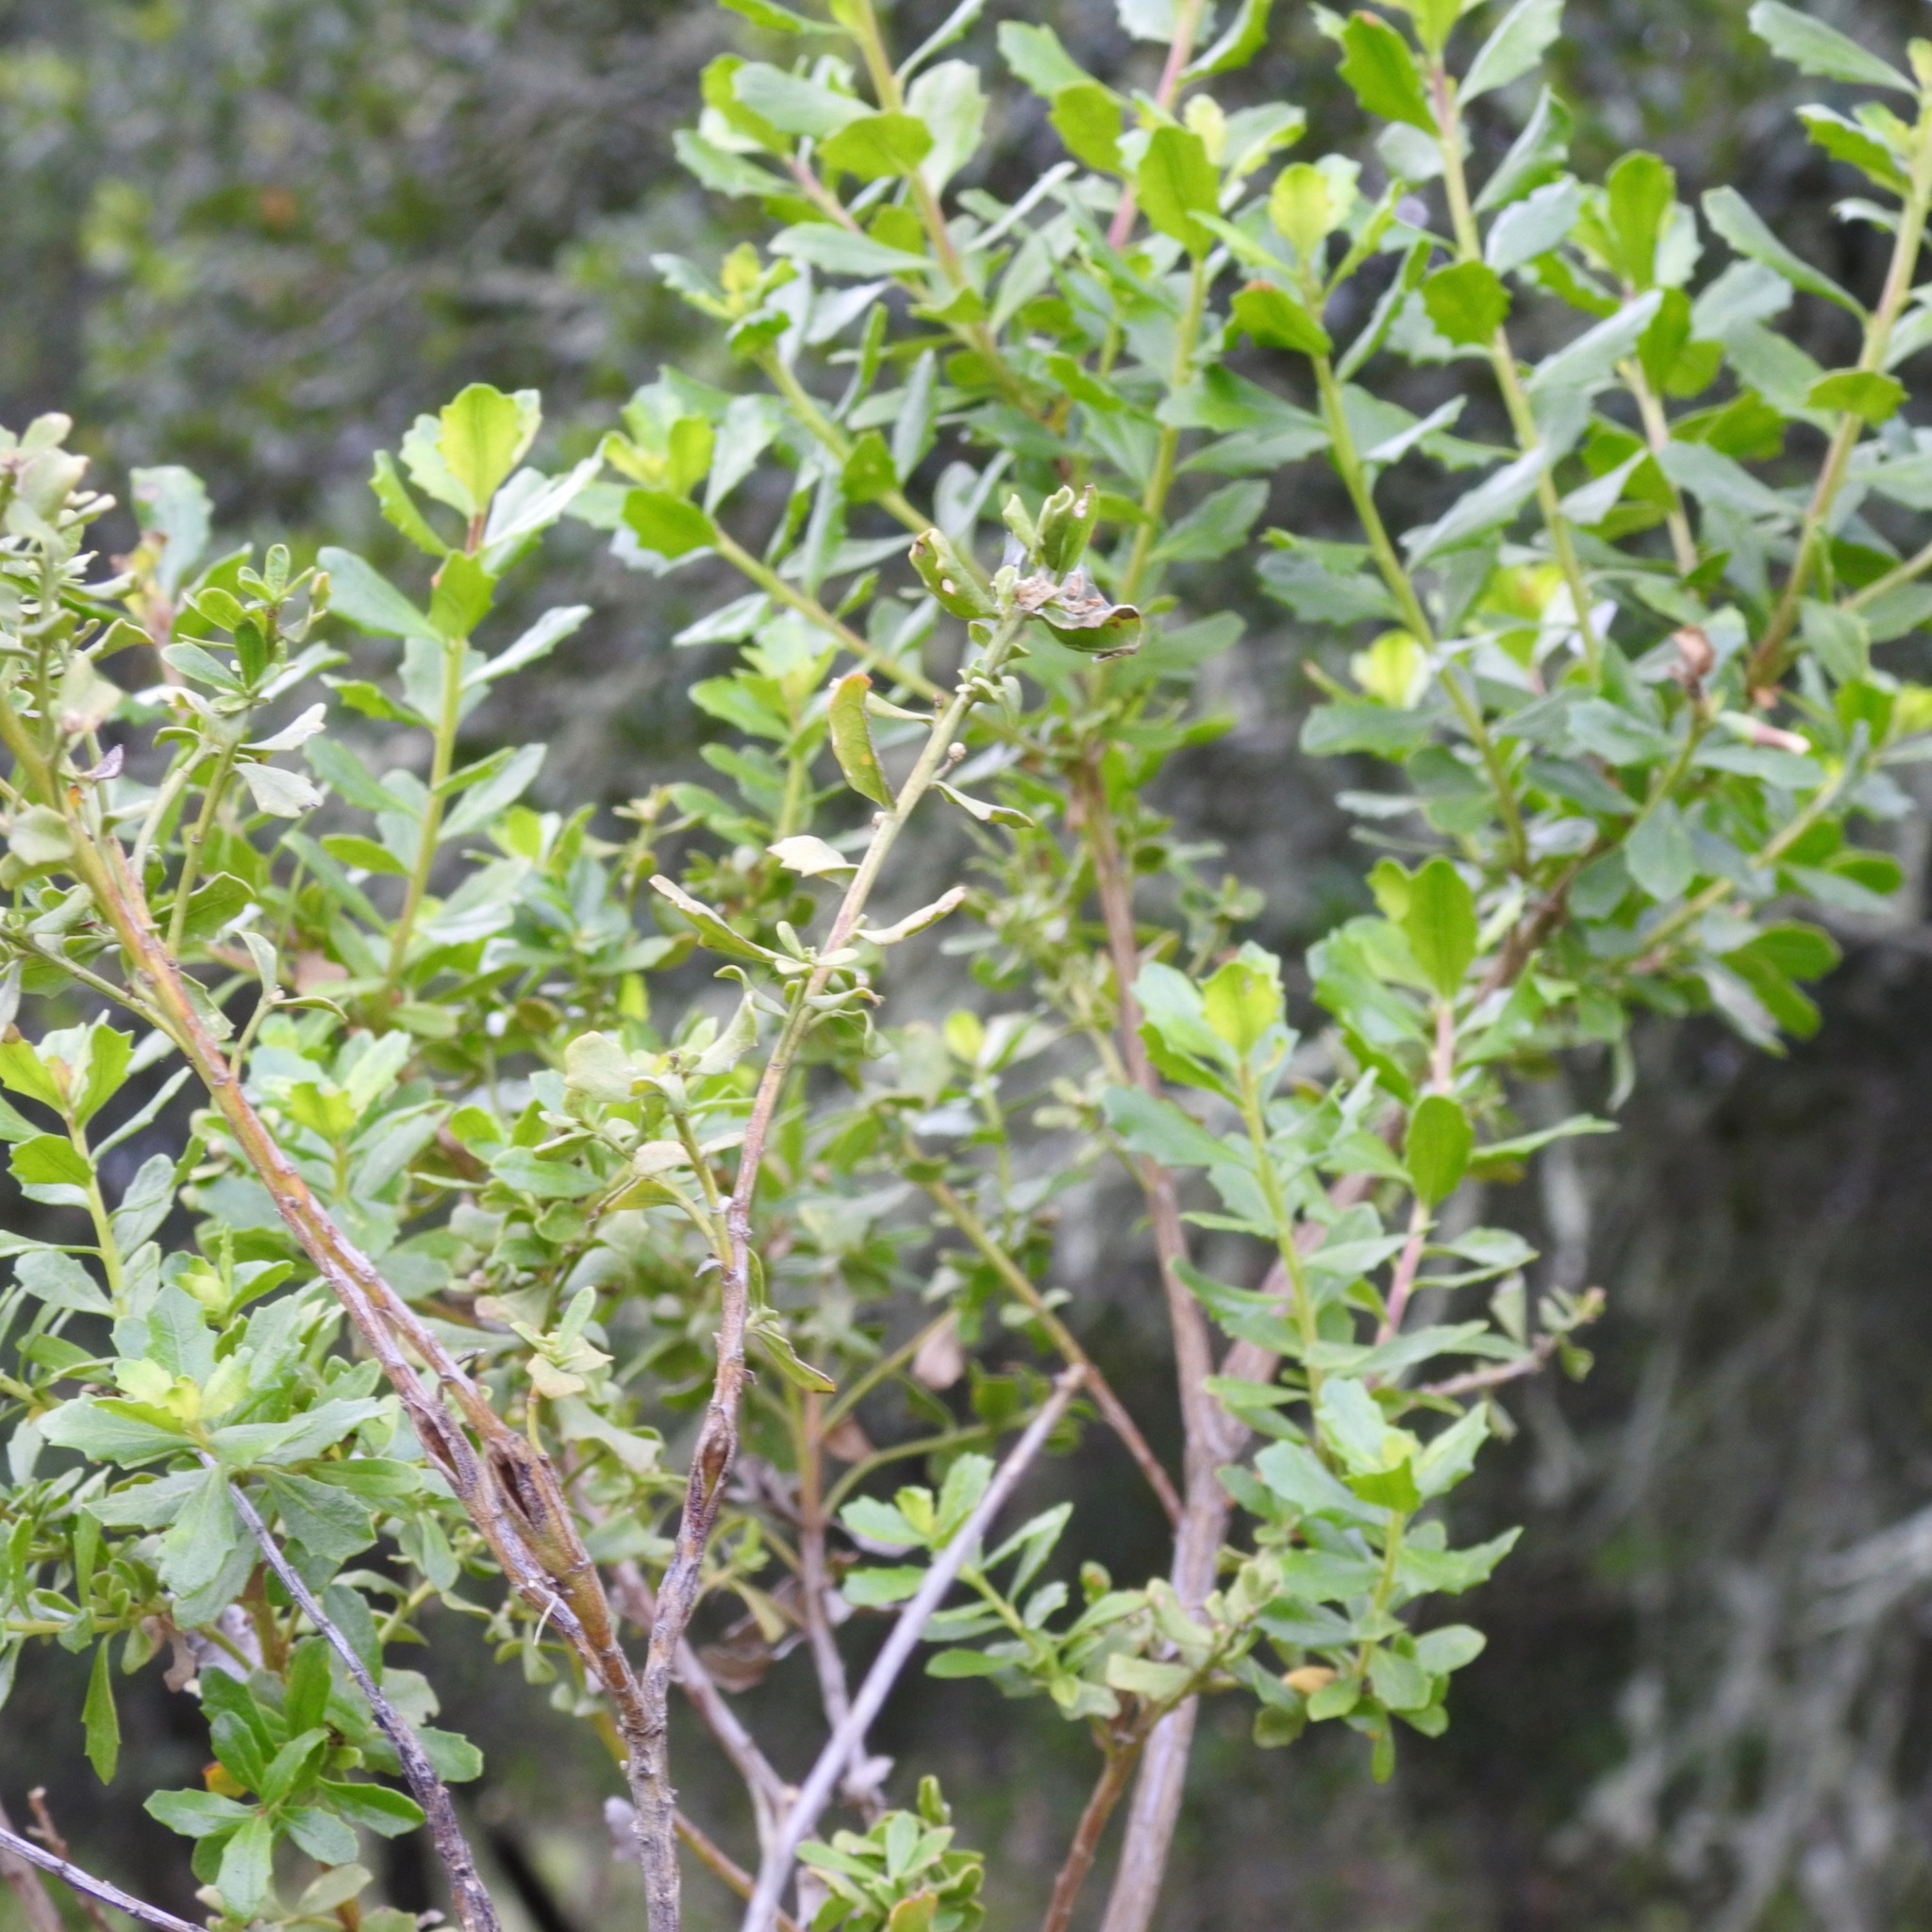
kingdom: Plantae
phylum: Tracheophyta
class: Magnoliopsida
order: Asterales
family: Asteraceae
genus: Baccharis
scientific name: Baccharis pilularis
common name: Coyotebrush
